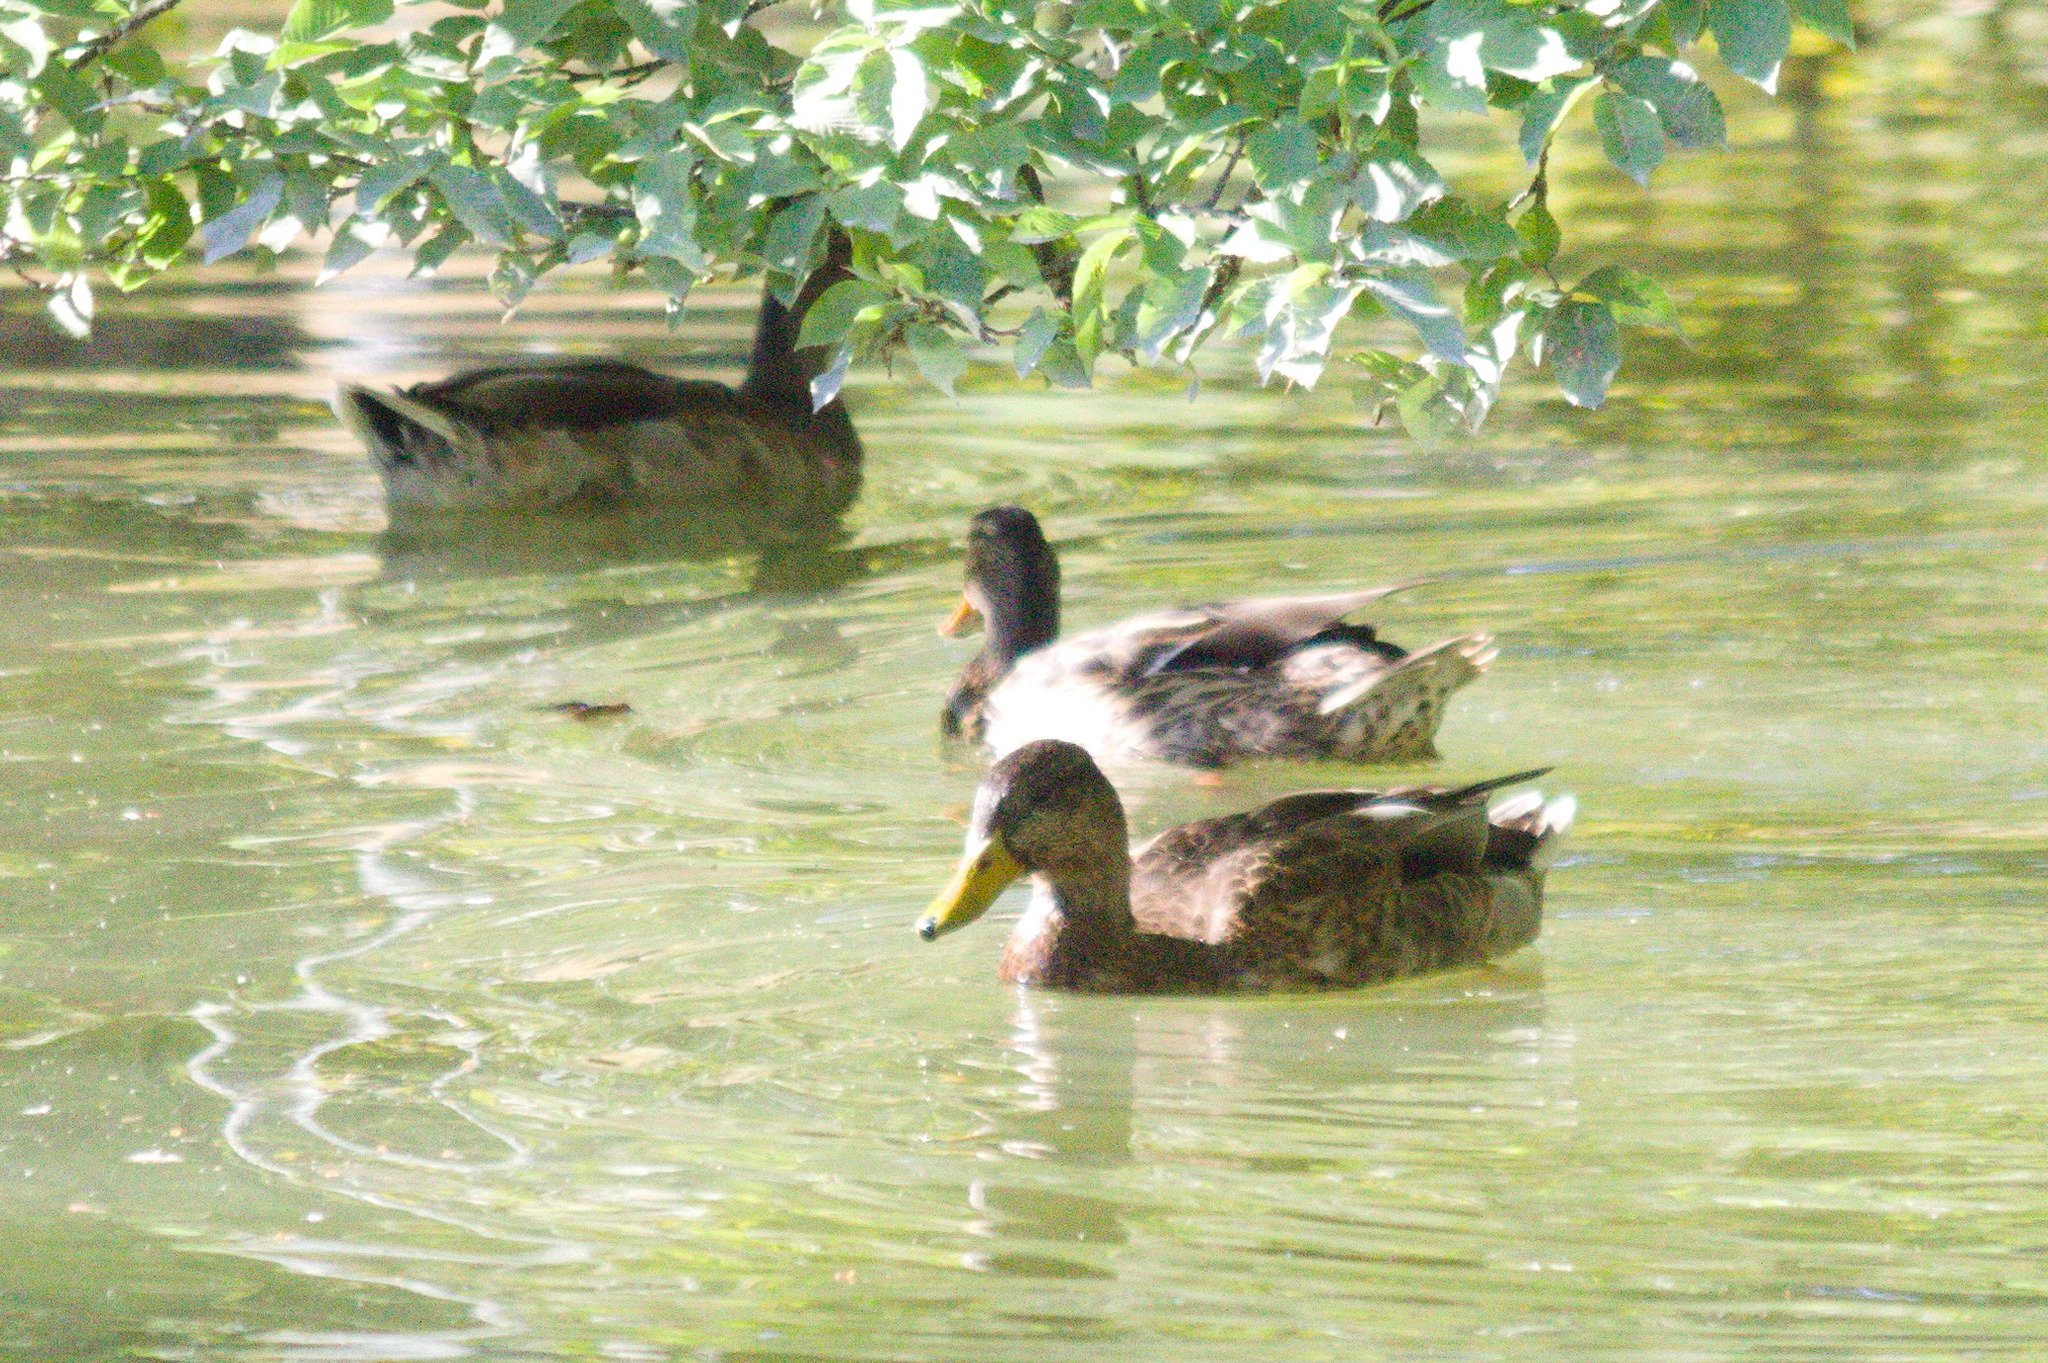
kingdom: Animalia
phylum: Chordata
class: Aves
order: Anseriformes
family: Anatidae
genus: Anas
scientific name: Anas platyrhynchos
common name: Mallard
